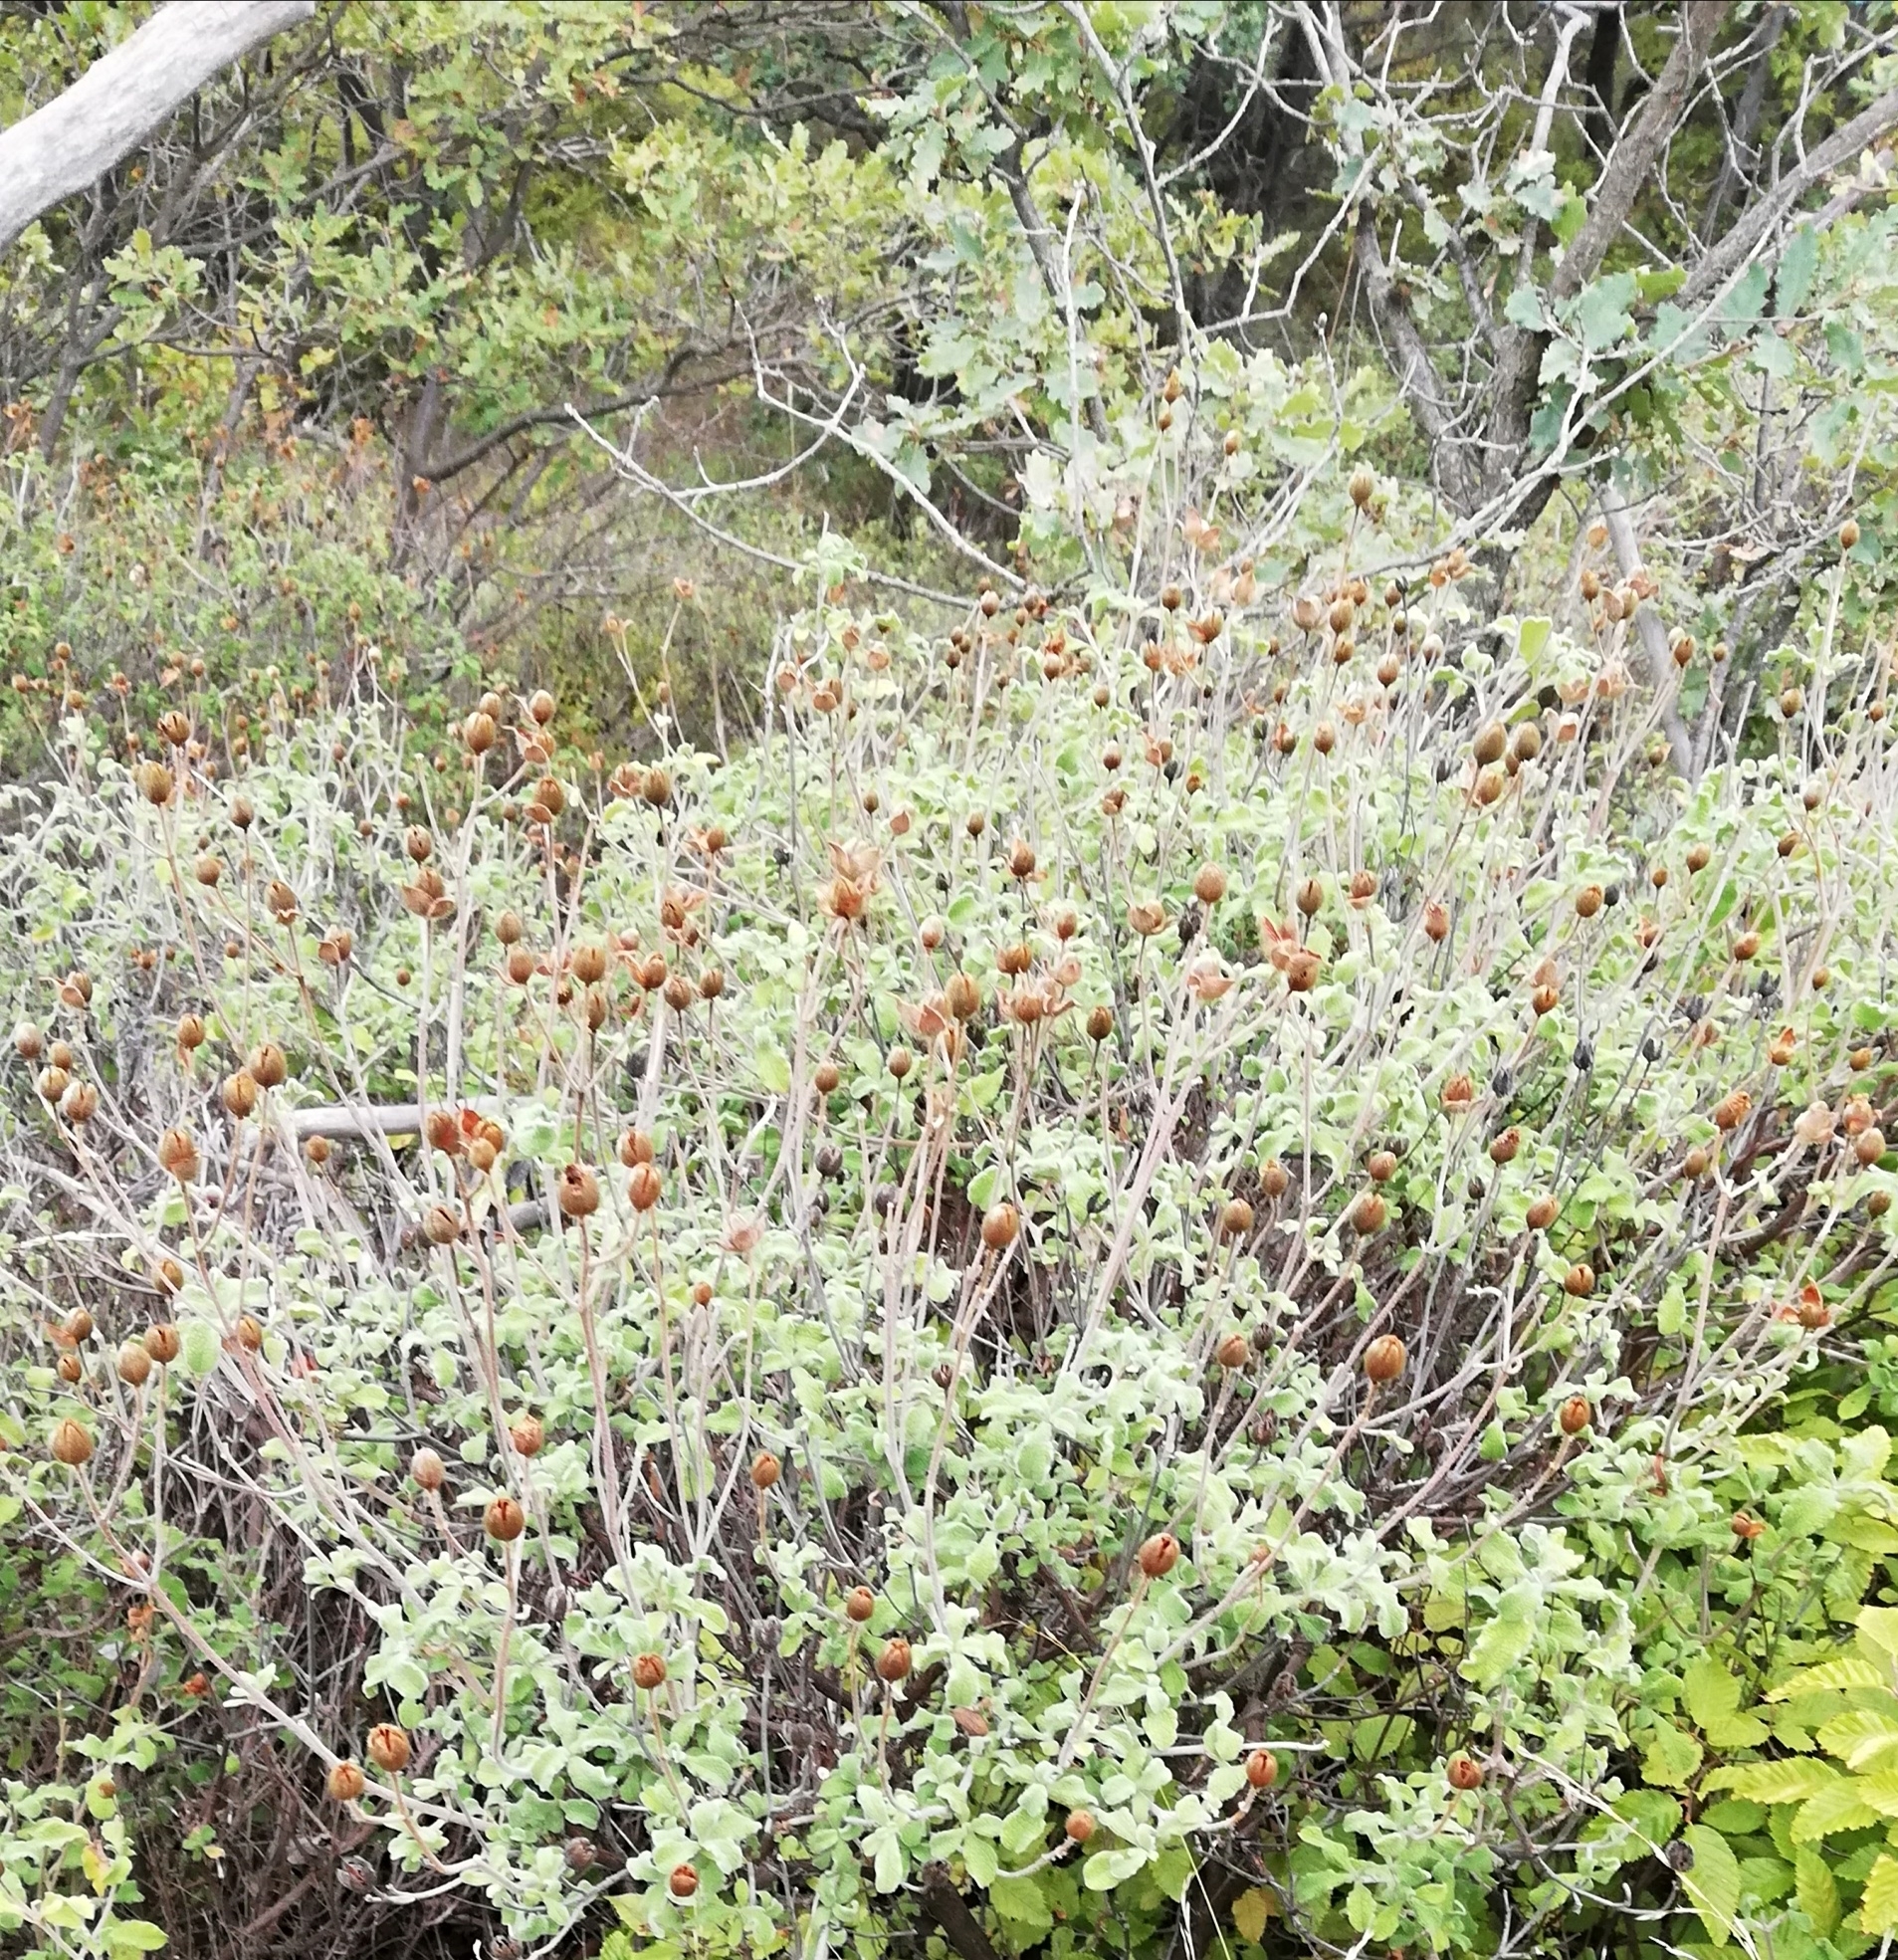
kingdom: Plantae
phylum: Tracheophyta
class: Magnoliopsida
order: Malvales
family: Cistaceae
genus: Cistus
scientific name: Cistus tauricus
